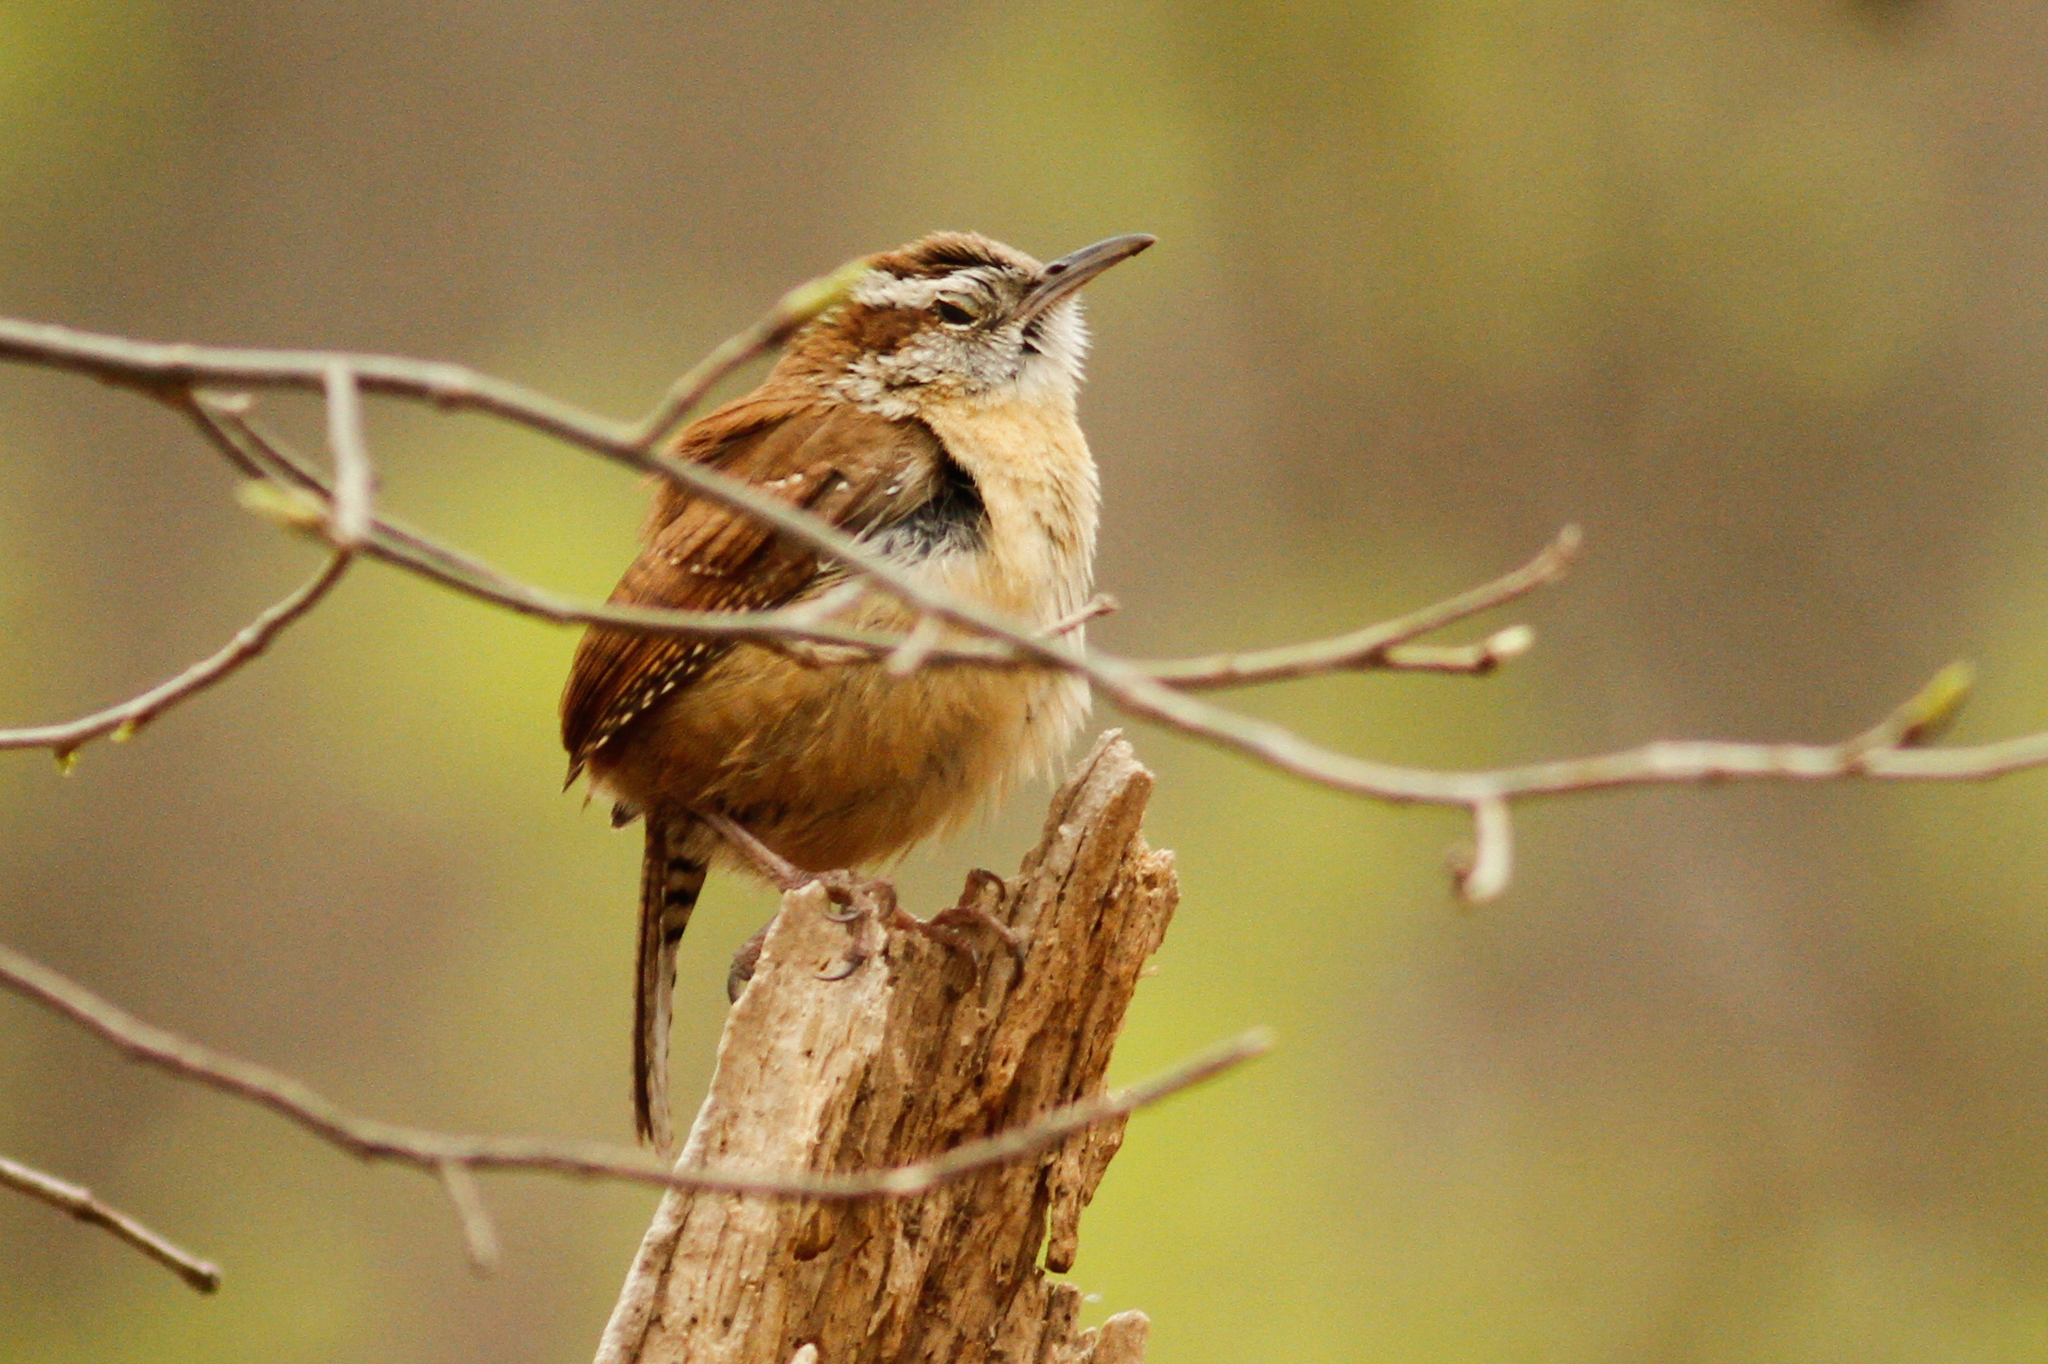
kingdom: Animalia
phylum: Chordata
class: Aves
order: Passeriformes
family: Troglodytidae
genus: Thryothorus
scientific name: Thryothorus ludovicianus
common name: Carolina wren
